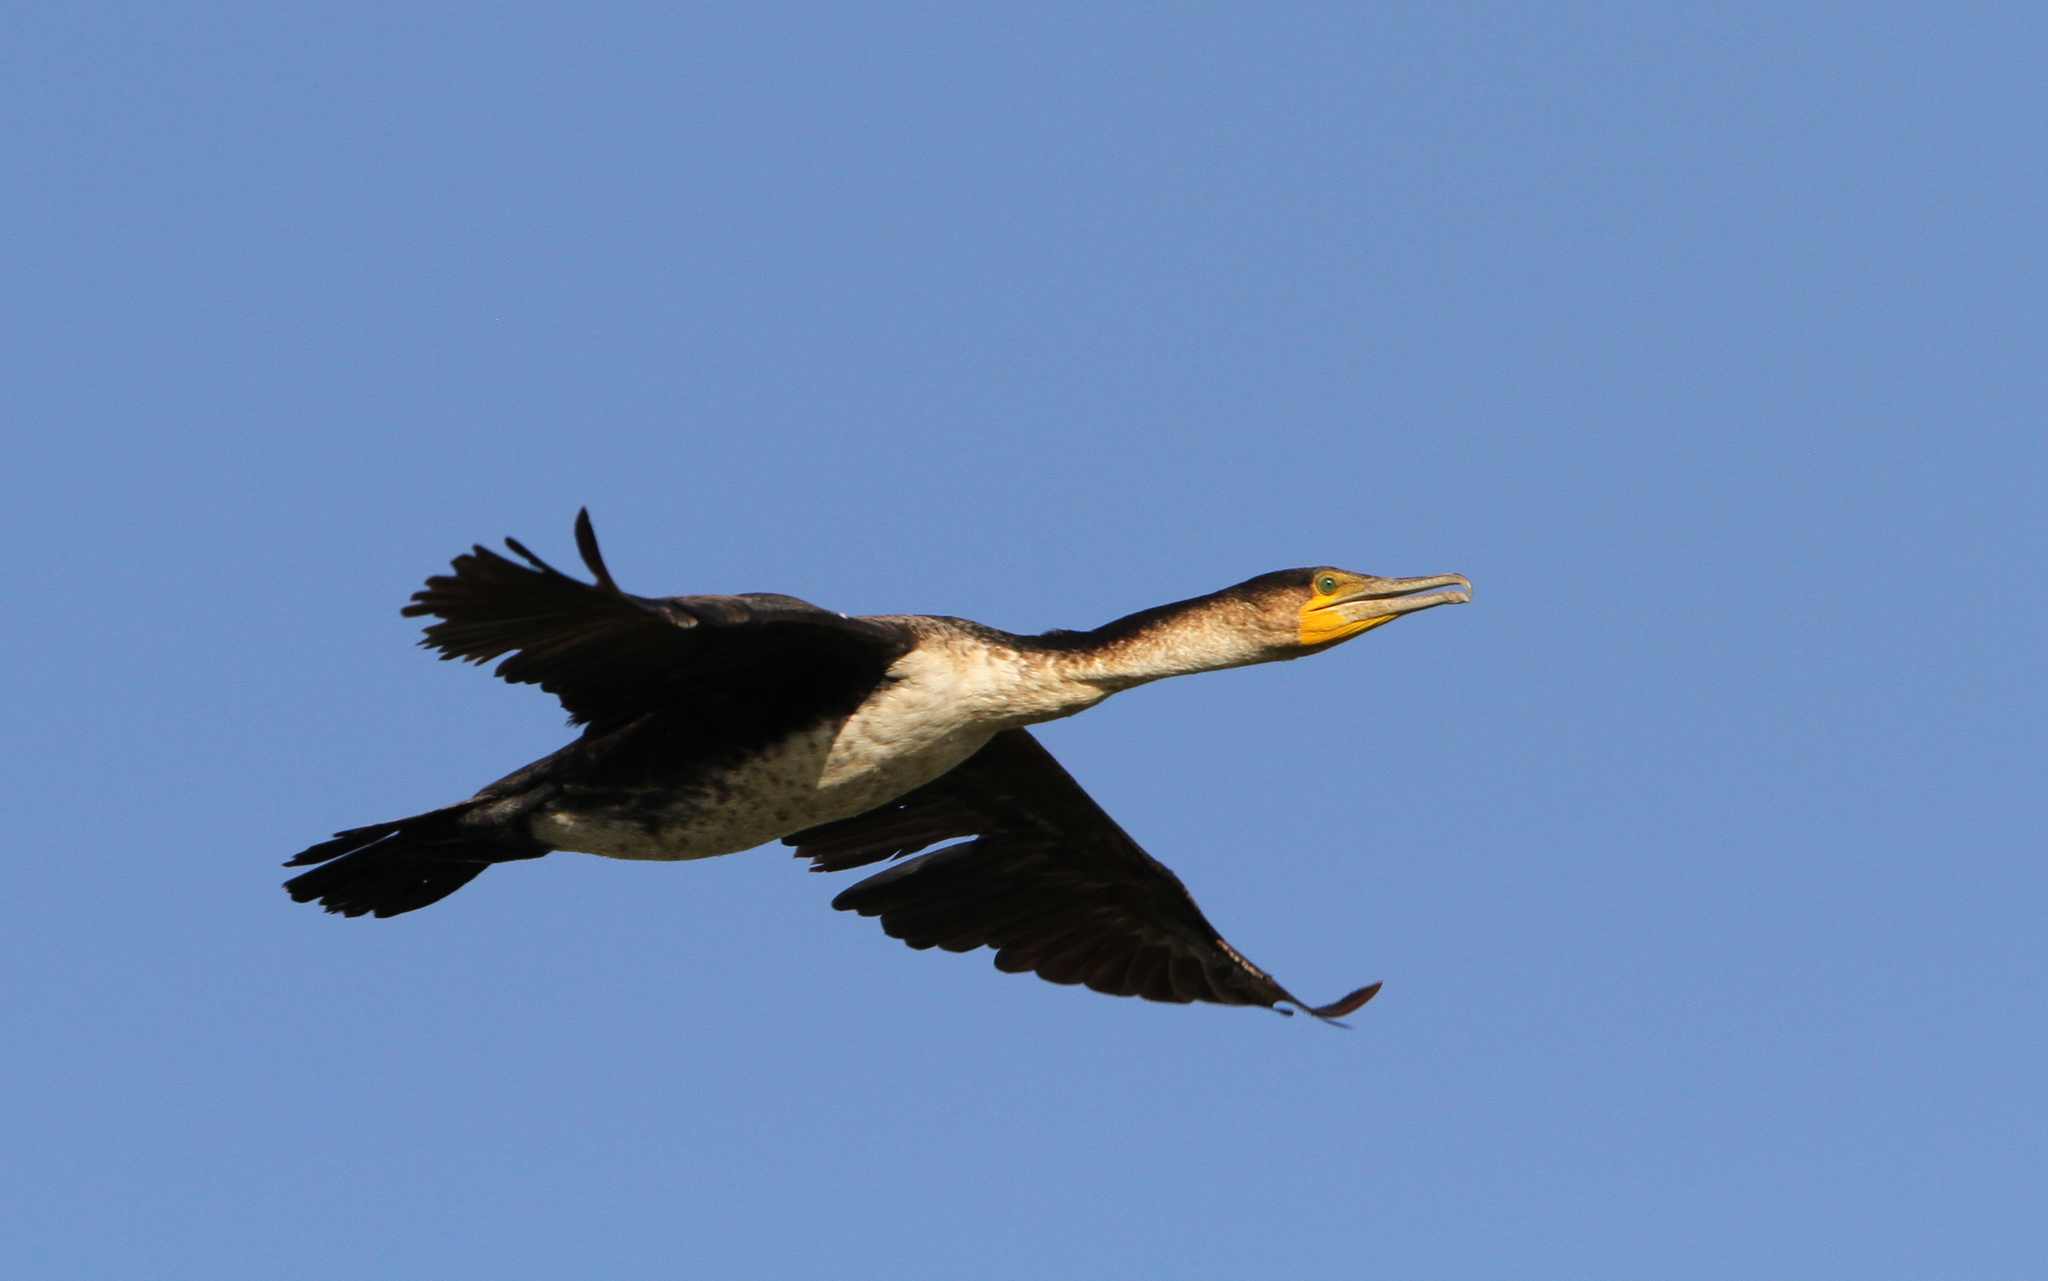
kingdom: Animalia
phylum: Chordata
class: Aves
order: Suliformes
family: Phalacrocoracidae
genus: Phalacrocorax
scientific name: Phalacrocorax carbo
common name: Great cormorant
